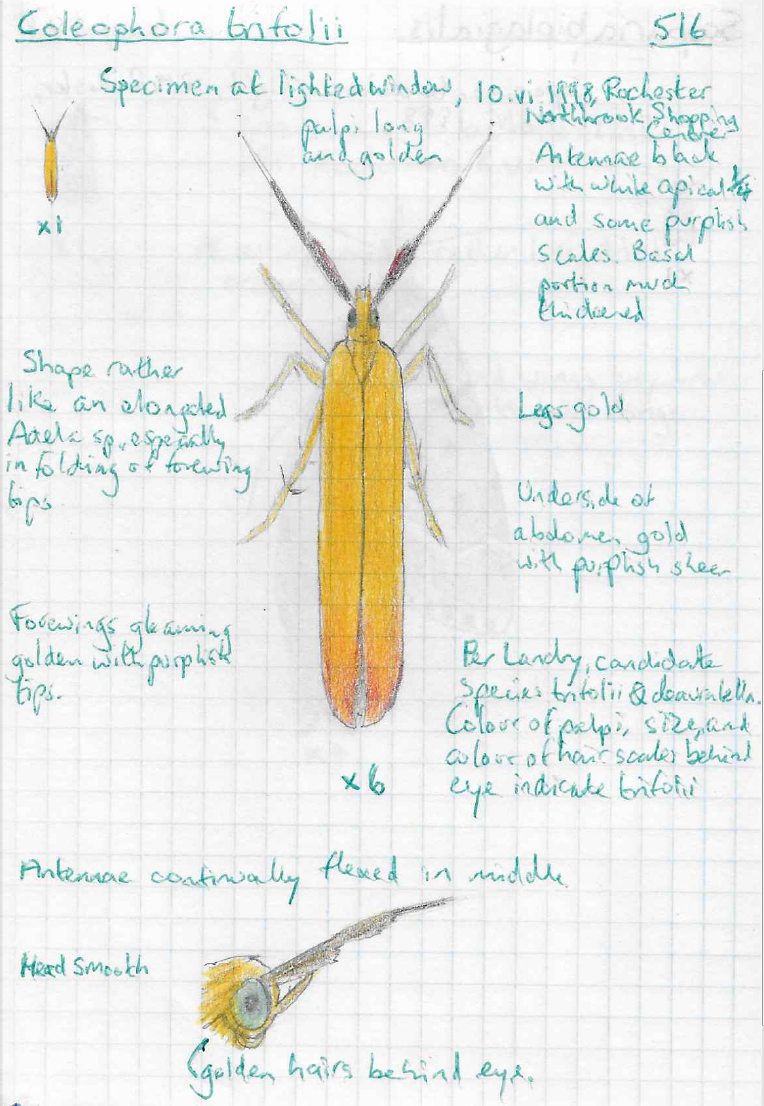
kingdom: Animalia
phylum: Arthropoda
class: Insecta
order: Lepidoptera
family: Coleophoridae
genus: Coleophora
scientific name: Coleophora trifolii
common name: Large clover case-bearer
